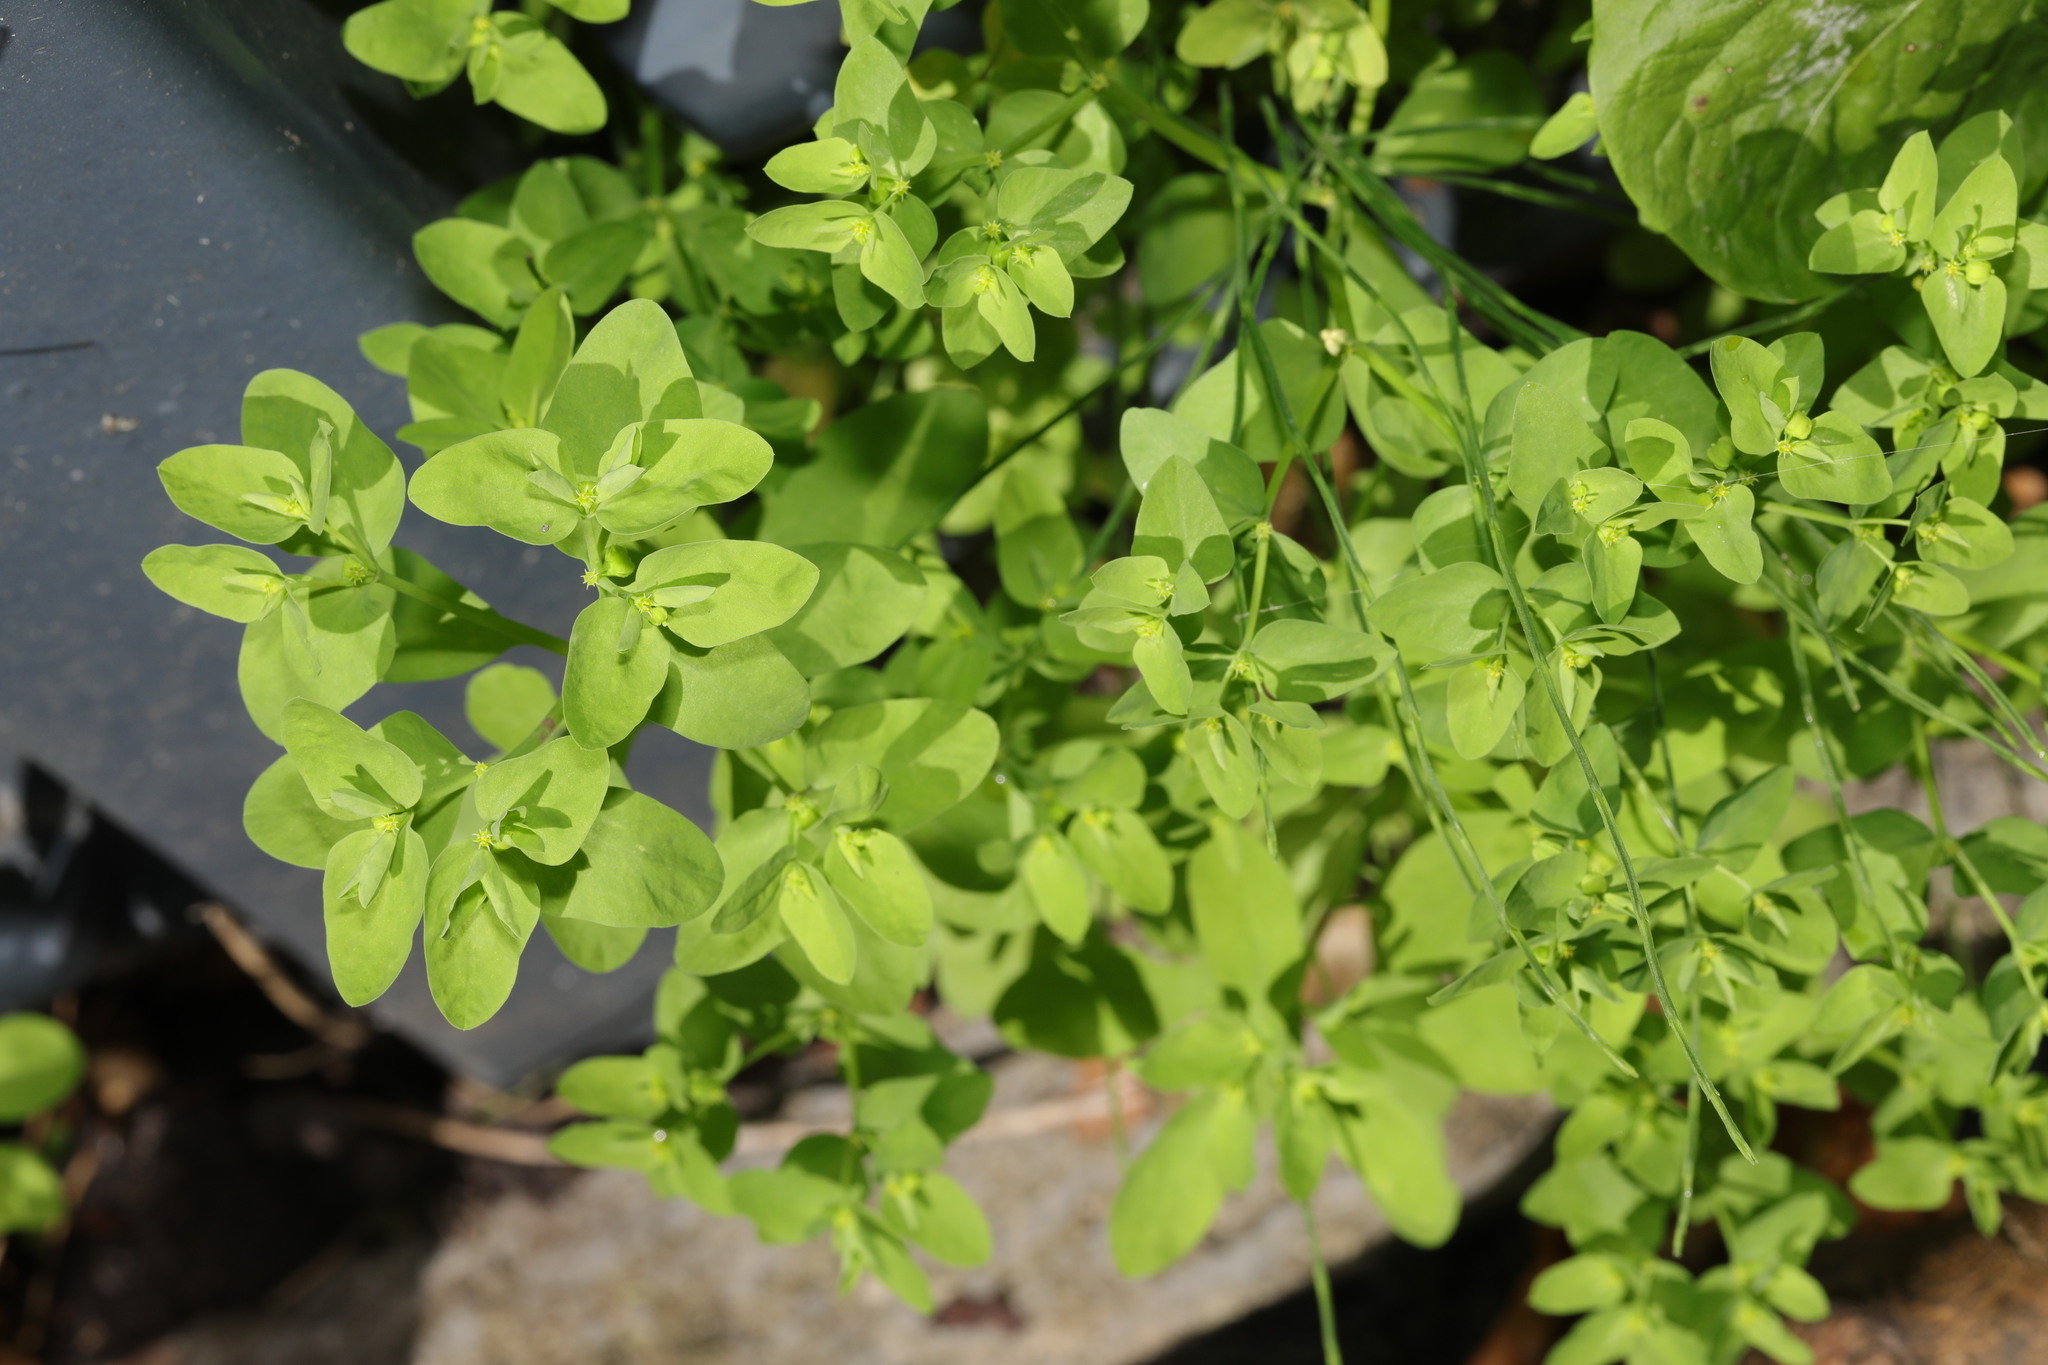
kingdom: Plantae
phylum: Tracheophyta
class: Magnoliopsida
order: Malpighiales
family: Euphorbiaceae
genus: Euphorbia
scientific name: Euphorbia peplus
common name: Petty spurge
